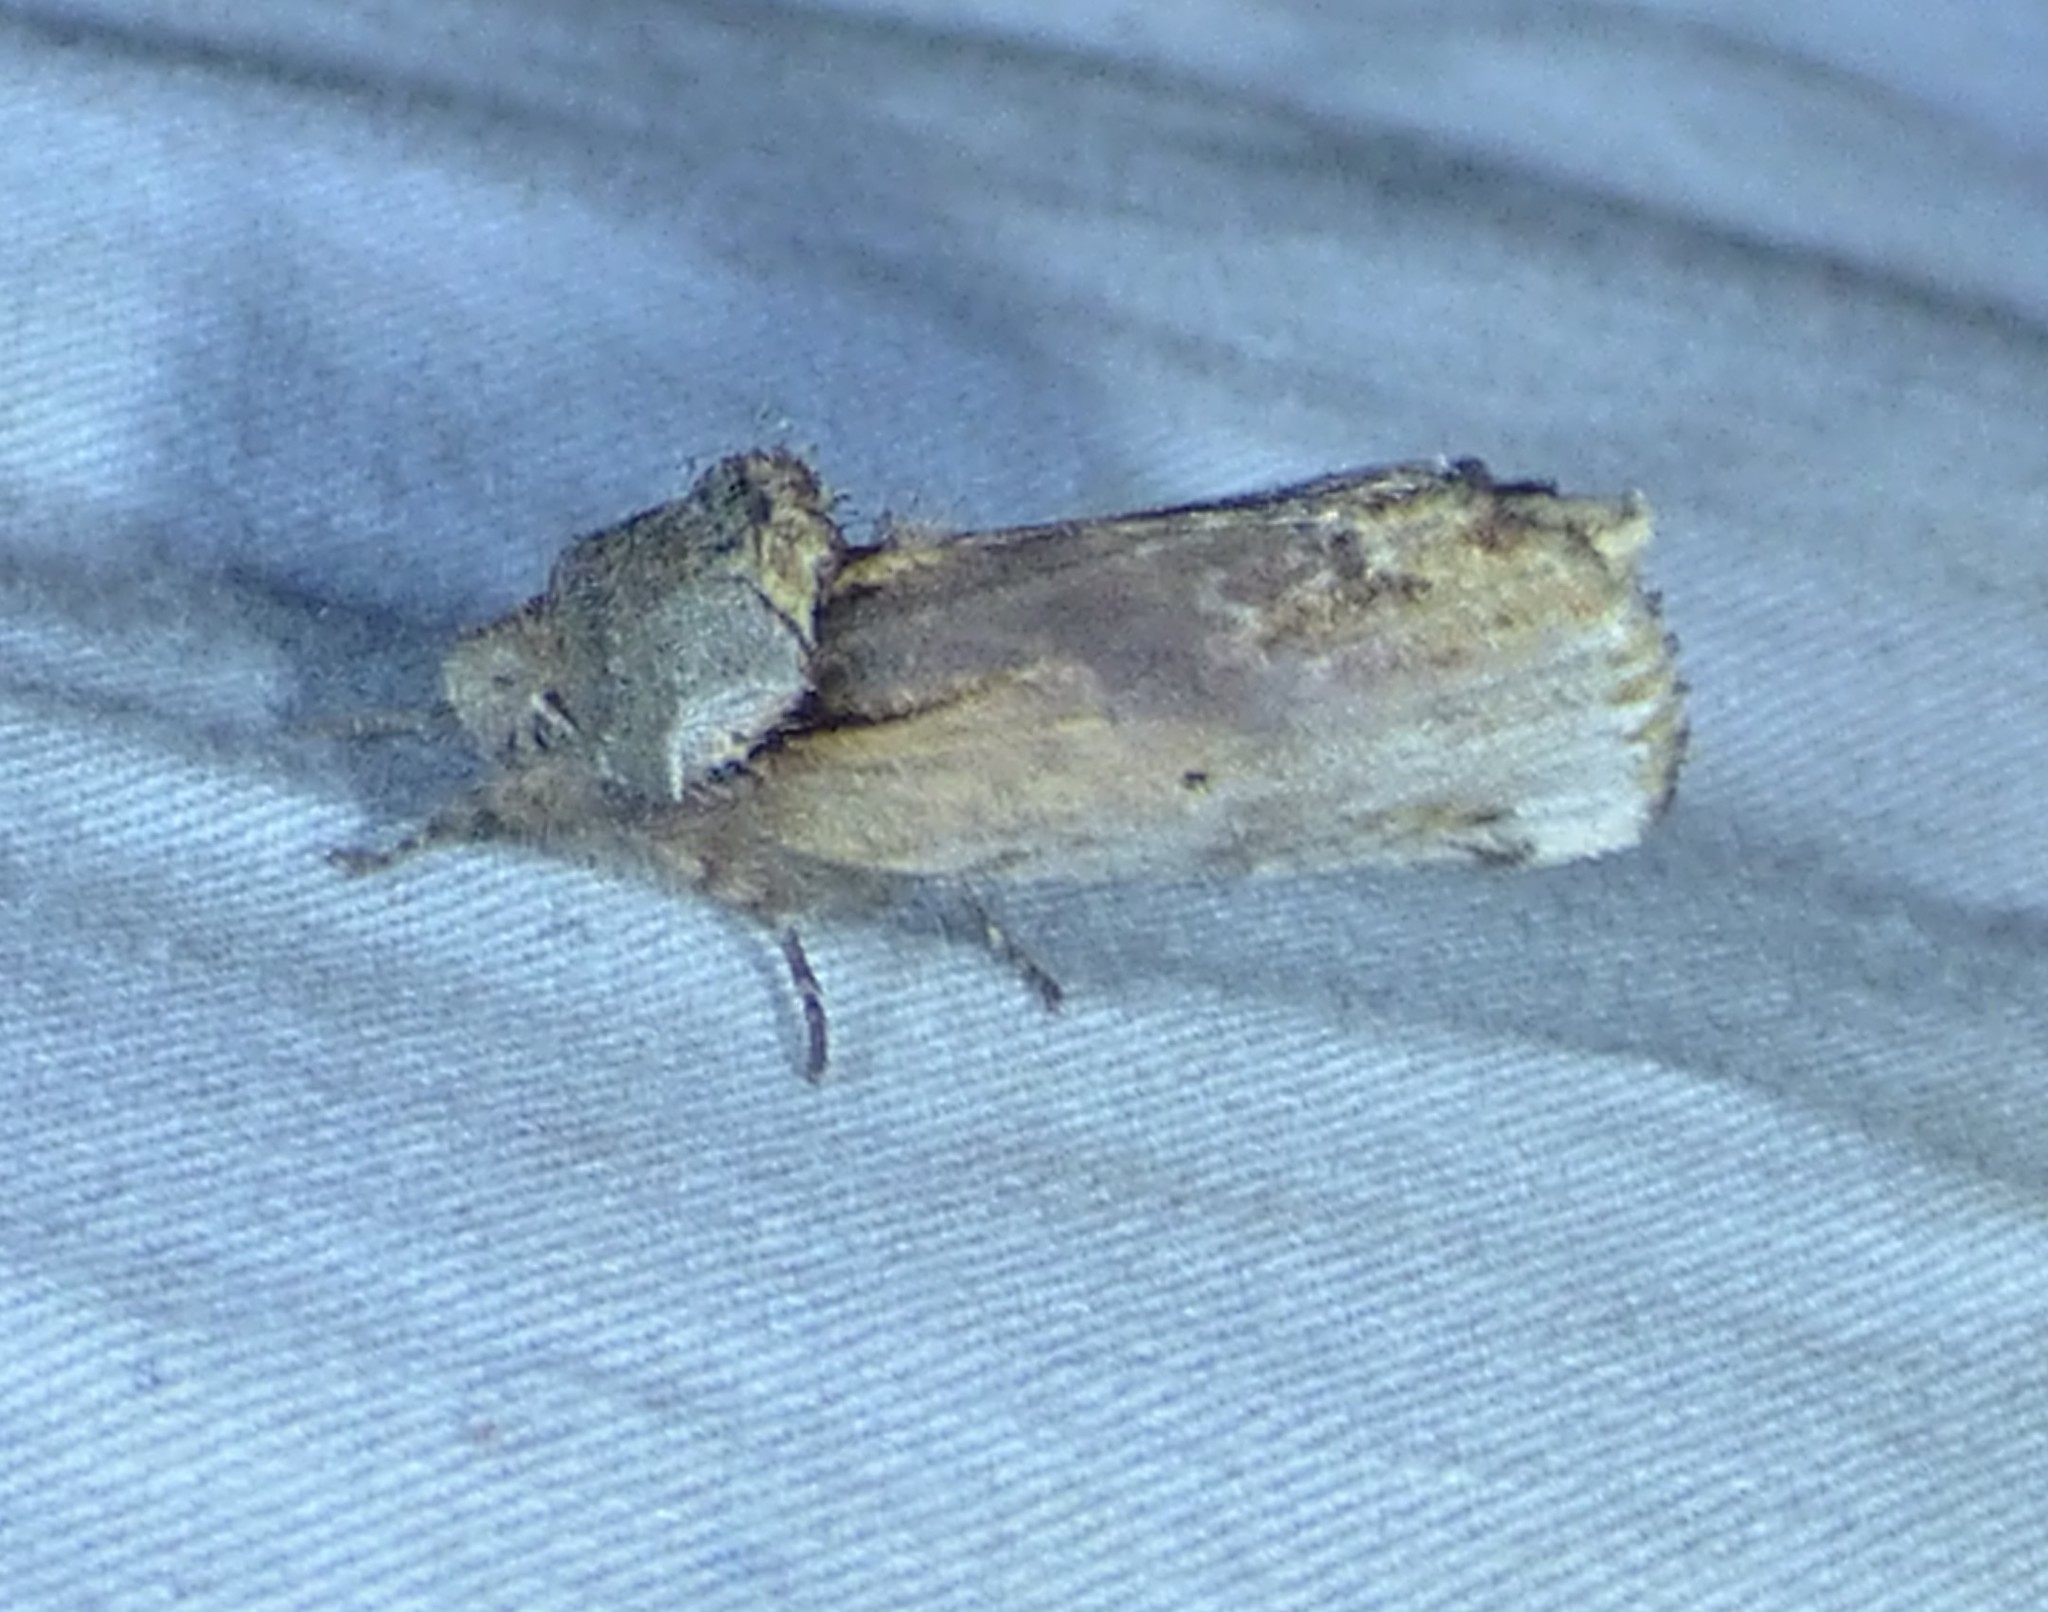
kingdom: Animalia
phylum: Arthropoda
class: Insecta
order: Lepidoptera
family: Notodontidae
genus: Schizura
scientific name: Schizura
